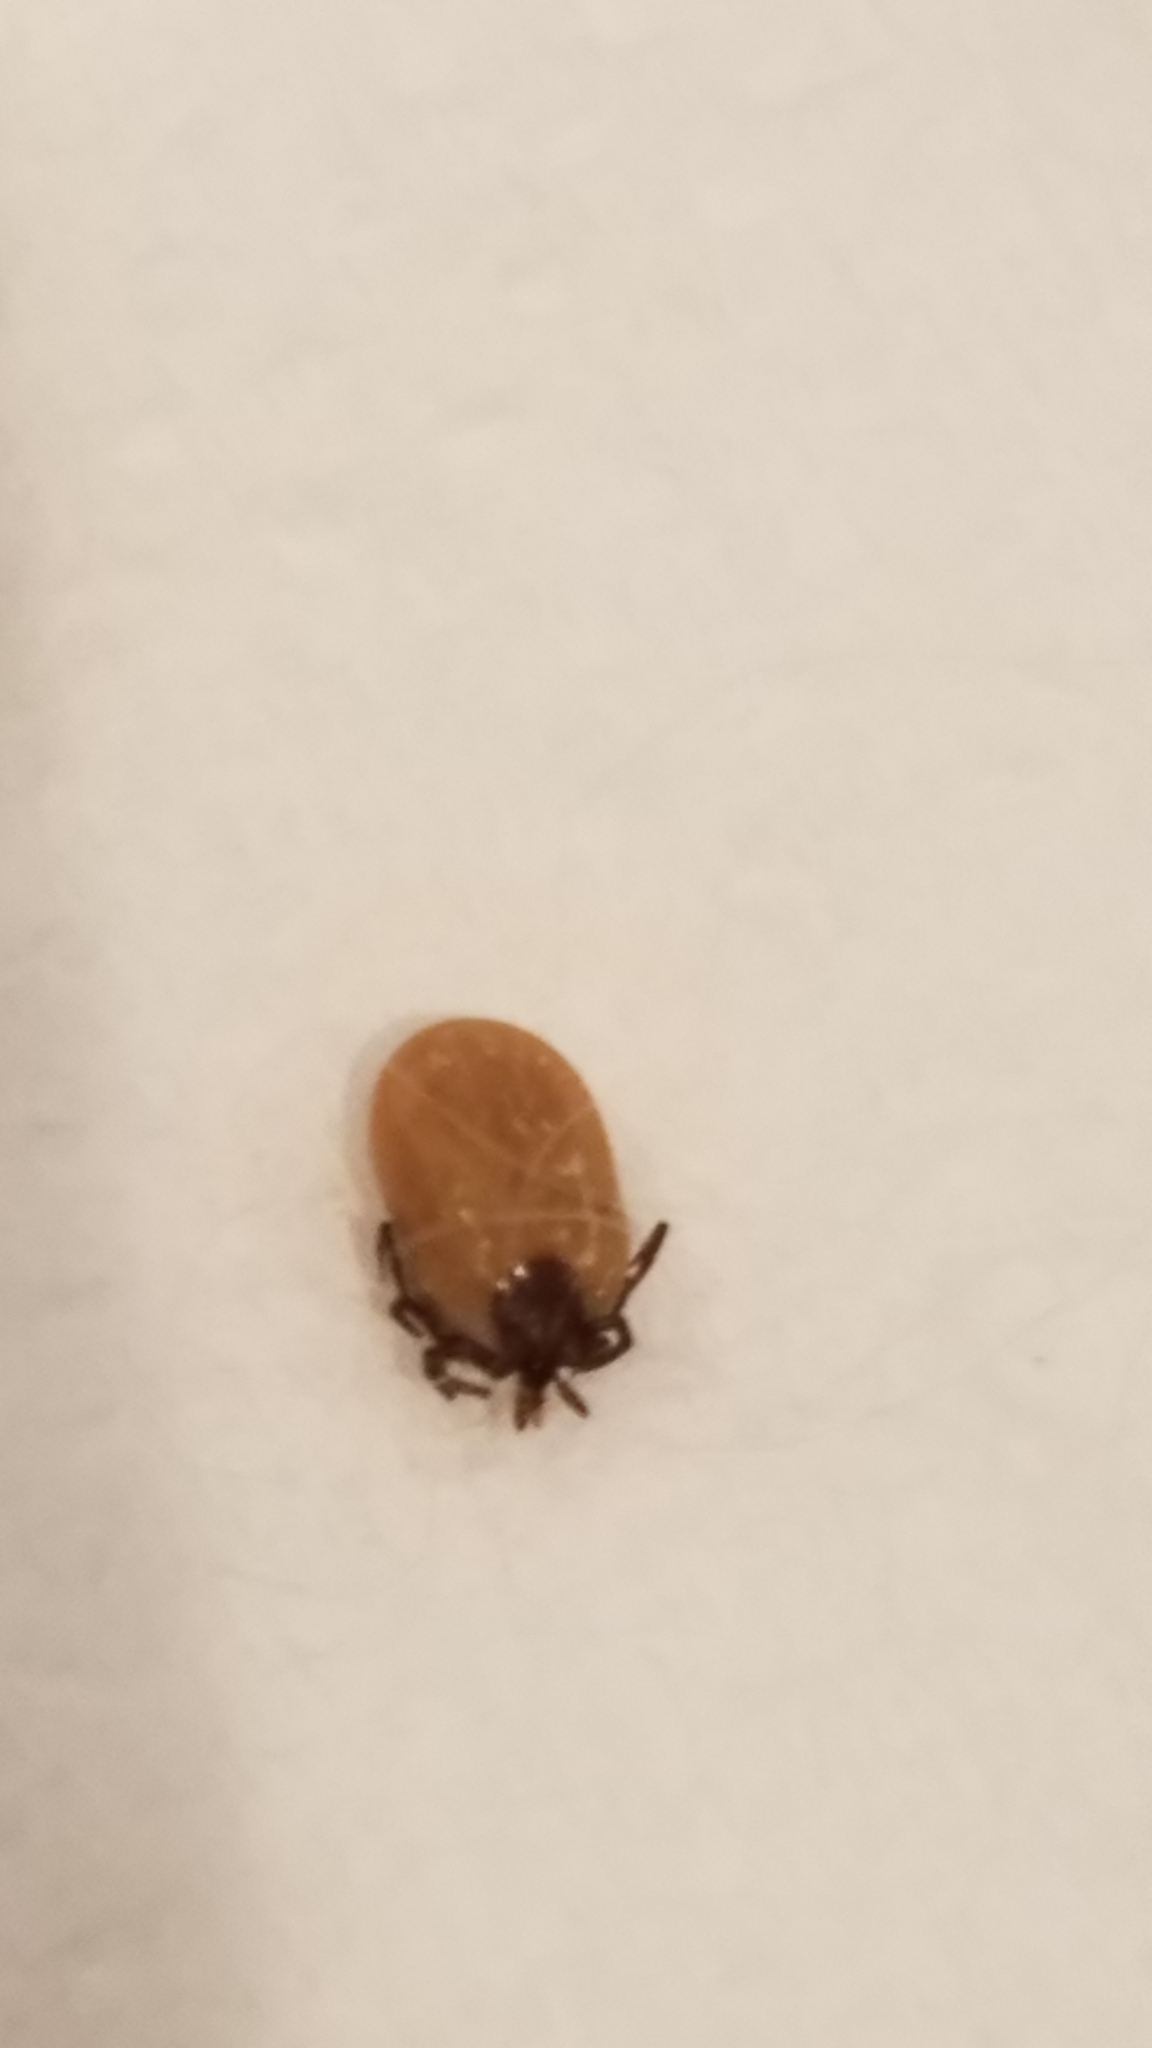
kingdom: Animalia
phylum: Arthropoda
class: Arachnida
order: Ixodida
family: Ixodidae
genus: Ixodes
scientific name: Ixodes scapularis
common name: Black legged tick
